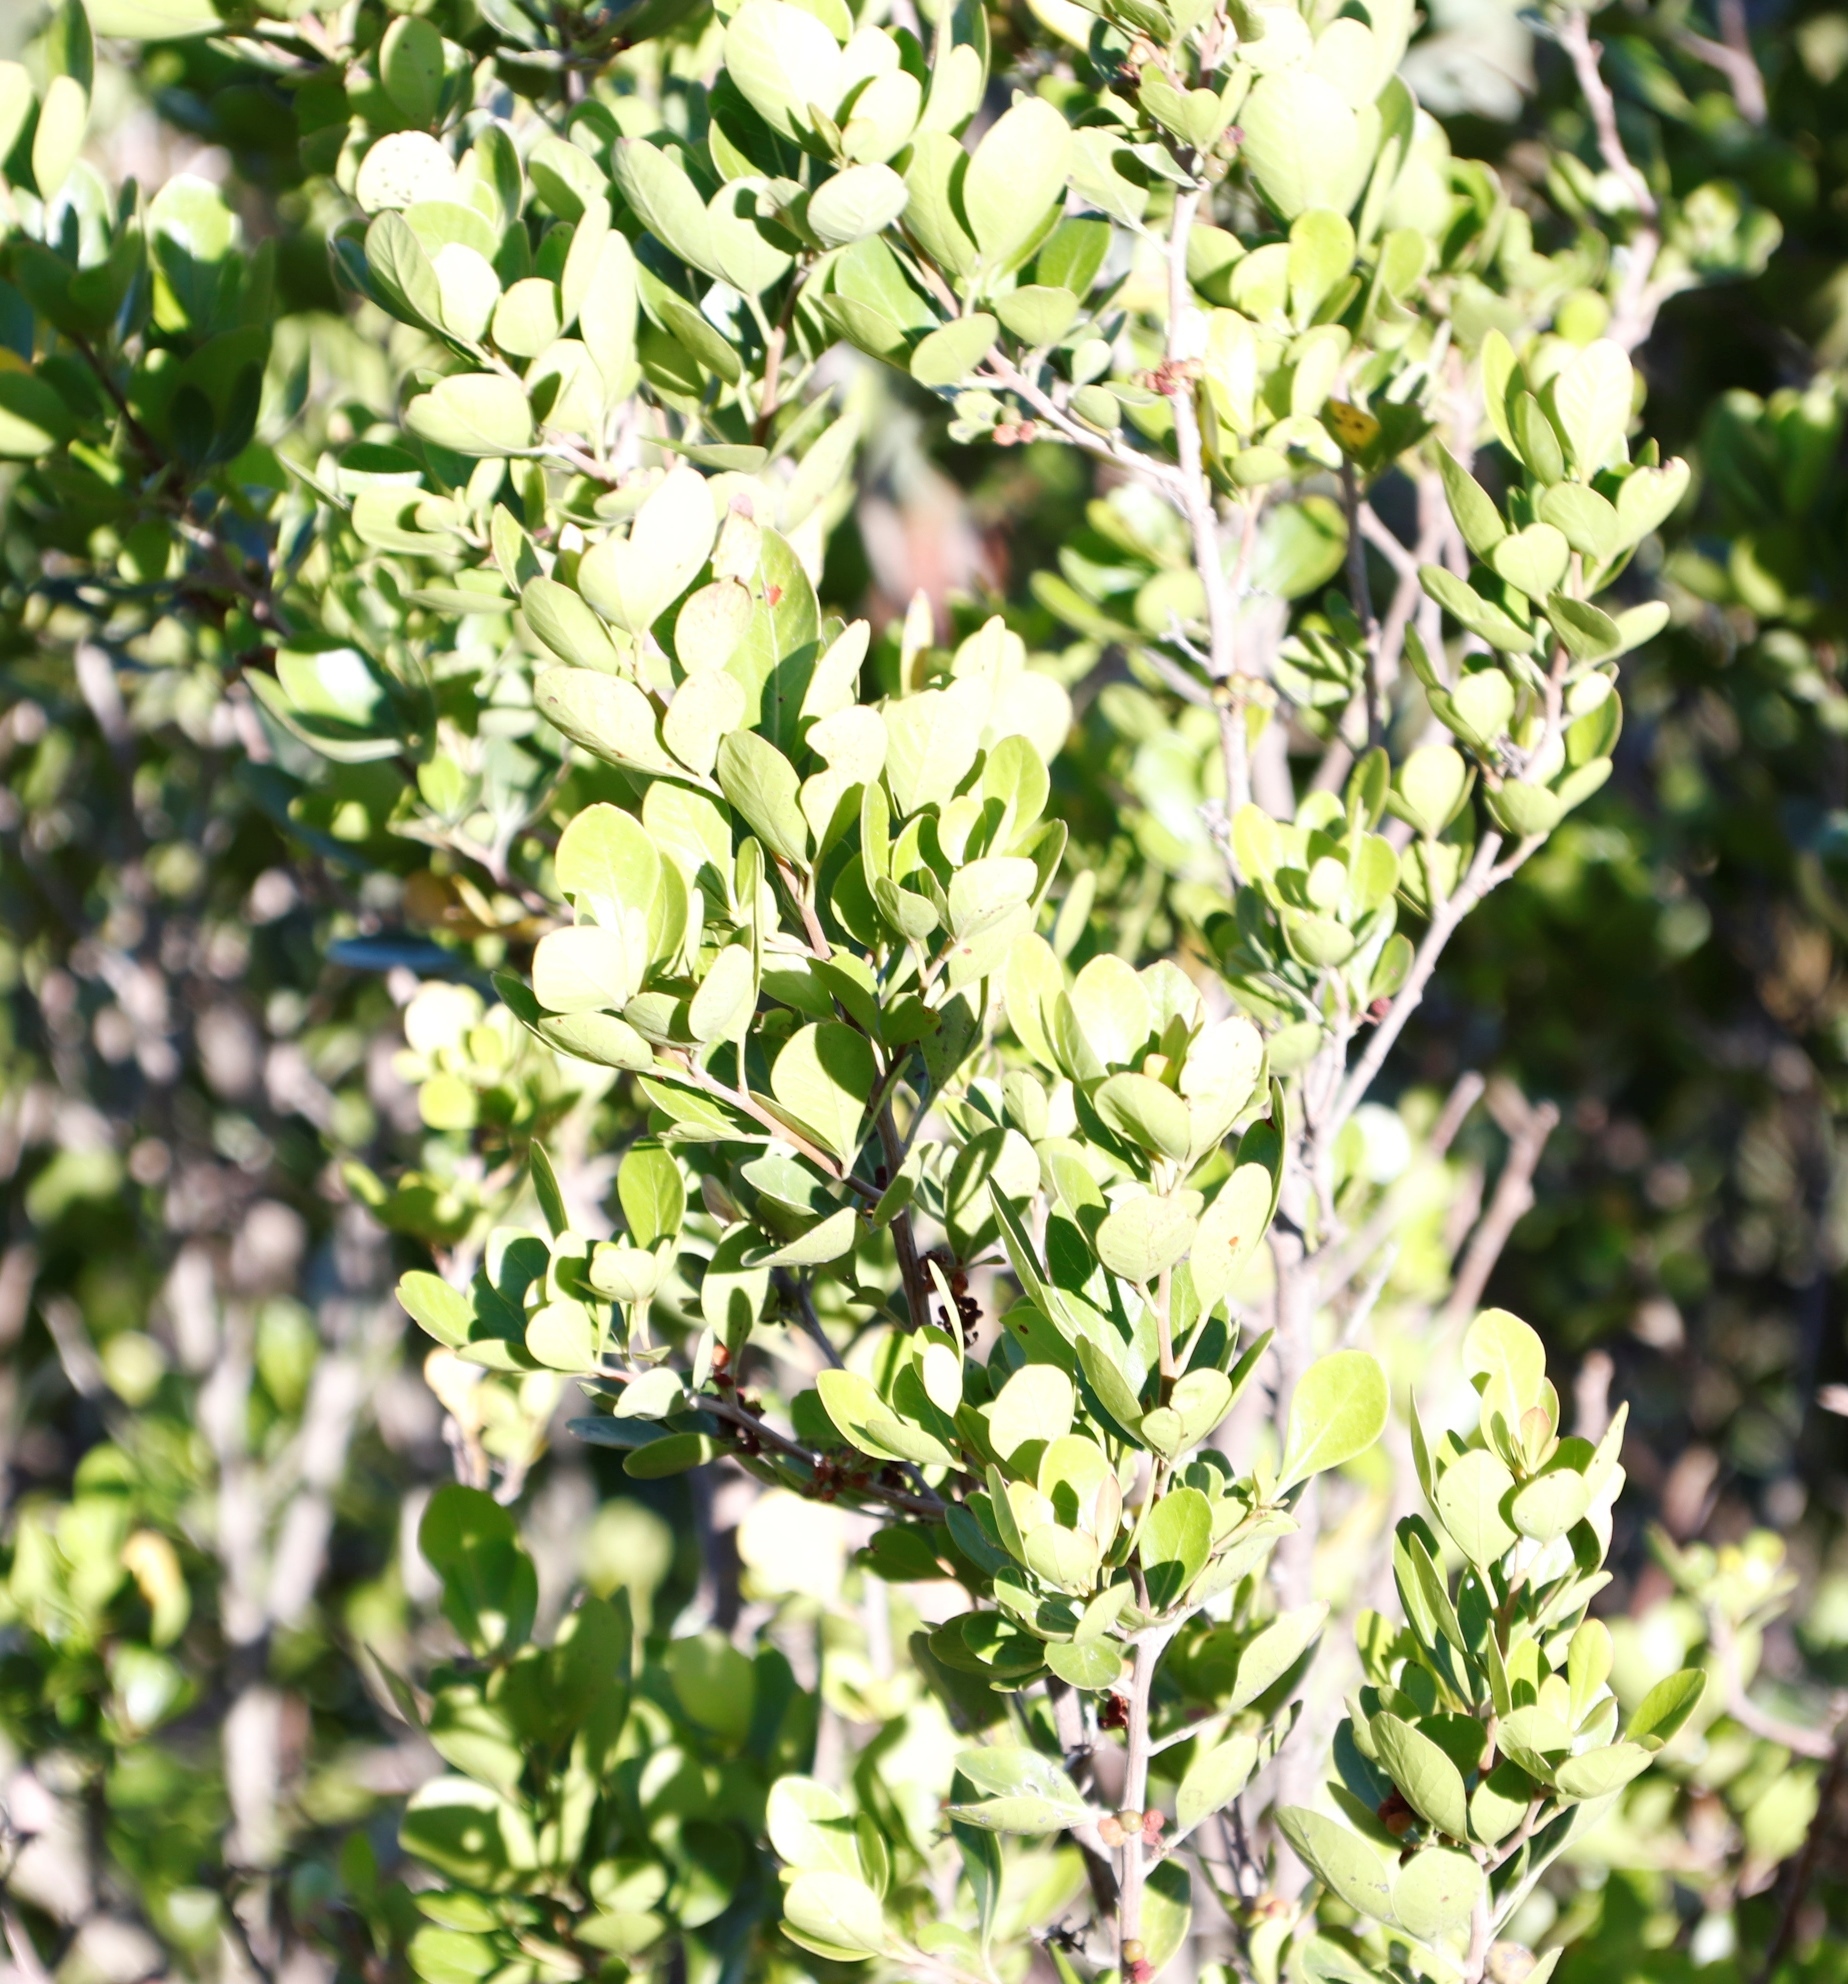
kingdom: Plantae
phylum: Tracheophyta
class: Magnoliopsida
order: Sapindales
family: Anacardiaceae
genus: Searsia
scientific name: Searsia lucida
